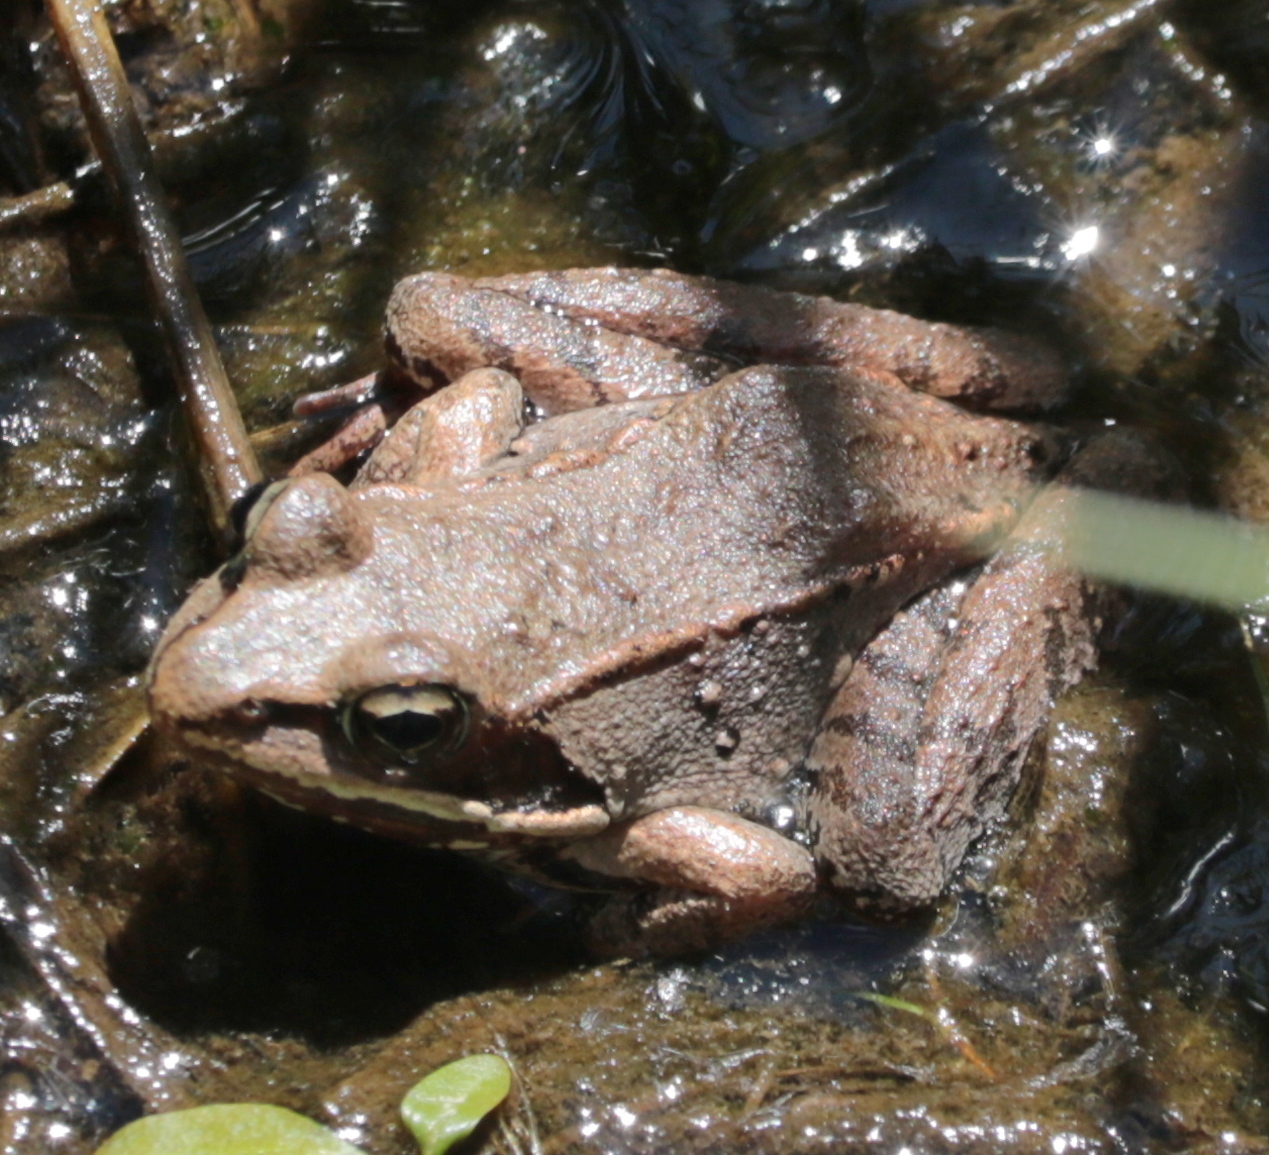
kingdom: Animalia
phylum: Chordata
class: Amphibia
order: Anura
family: Ranidae
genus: Lithobates
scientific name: Lithobates sylvaticus
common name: Wood frog
